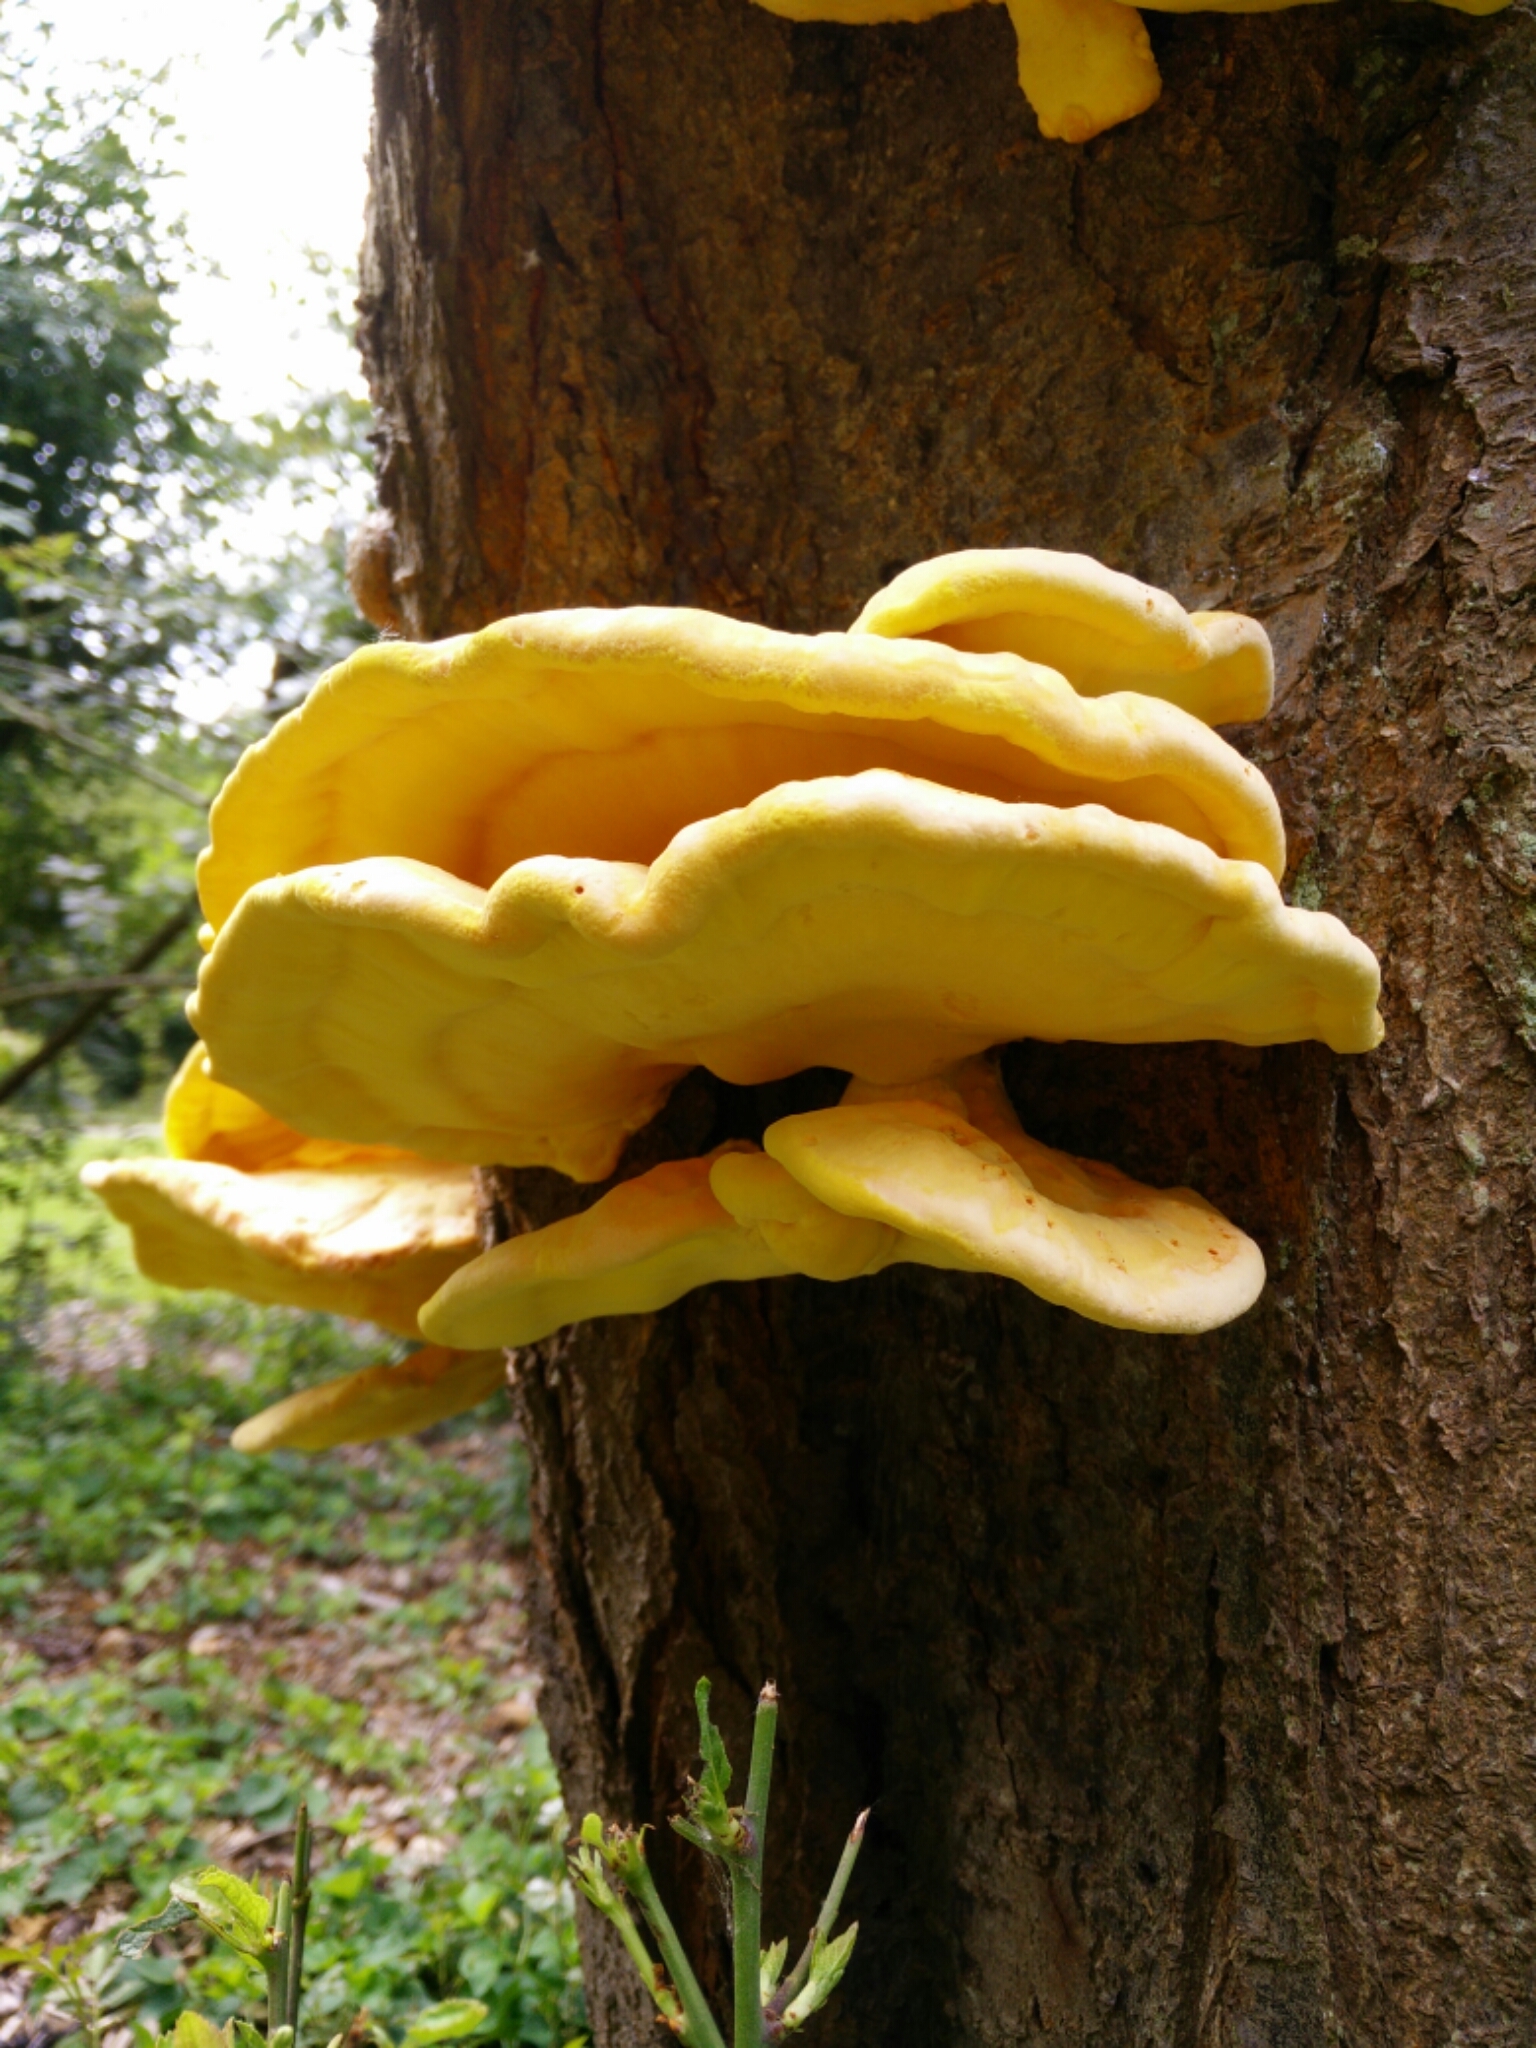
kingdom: Fungi
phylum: Basidiomycota
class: Agaricomycetes
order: Polyporales
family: Laetiporaceae
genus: Laetiporus
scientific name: Laetiporus sulphureus
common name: Chicken of the woods
